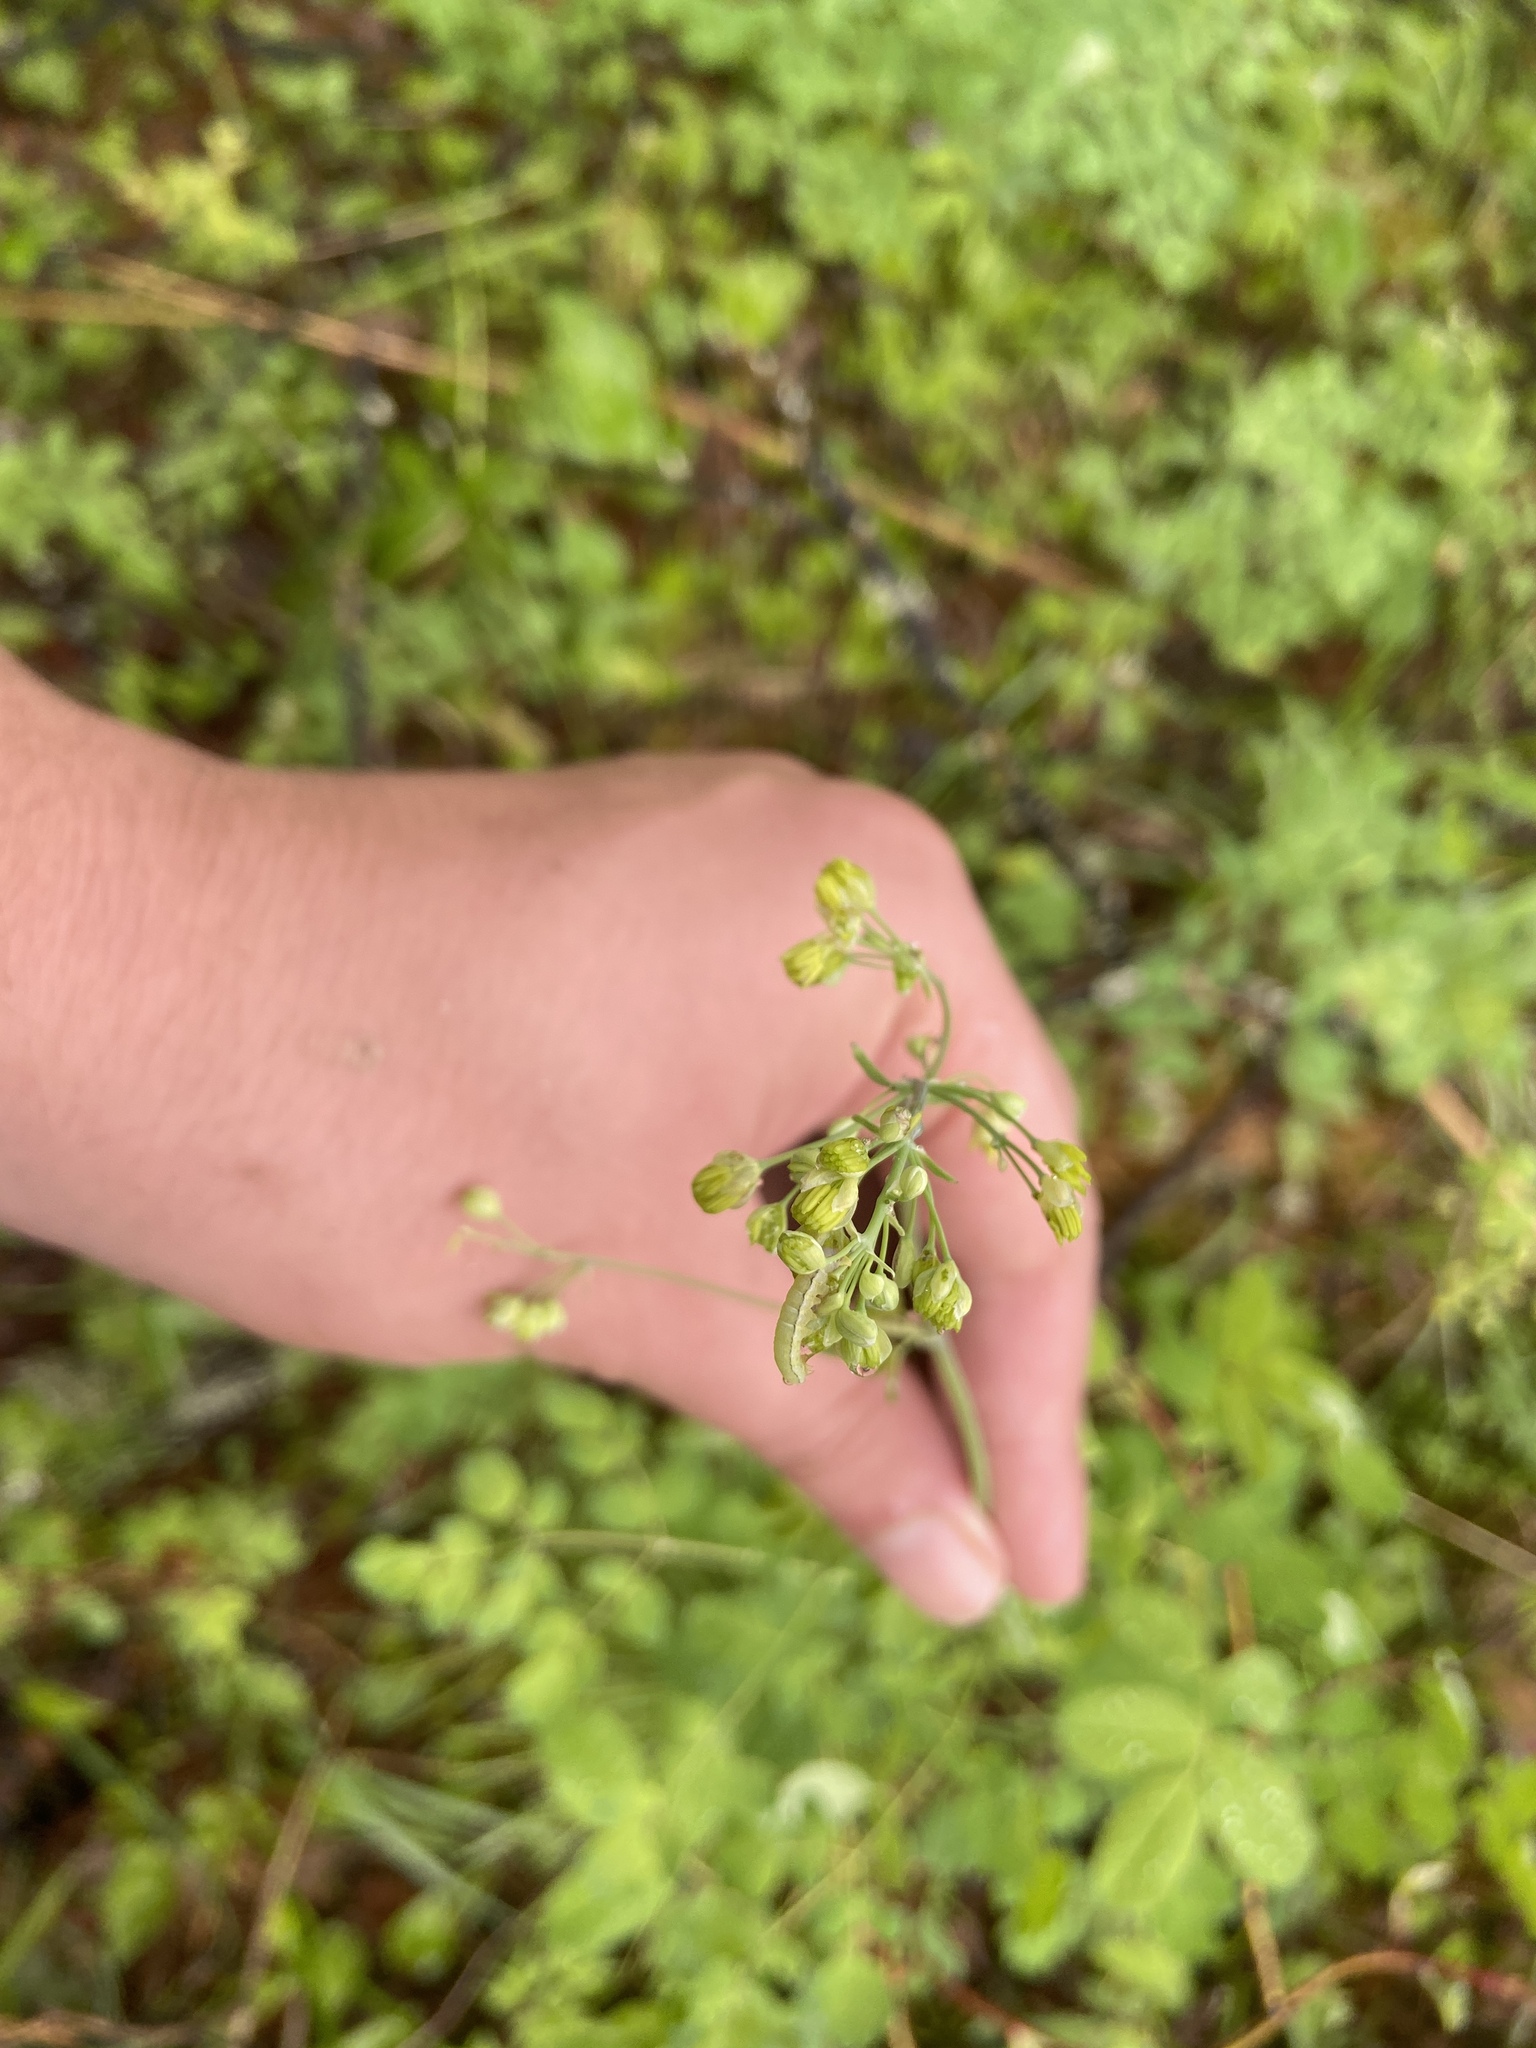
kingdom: Plantae
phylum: Tracheophyta
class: Magnoliopsida
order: Ranunculales
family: Ranunculaceae
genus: Thalictrum
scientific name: Thalictrum minus
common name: Lesser meadow-rue
